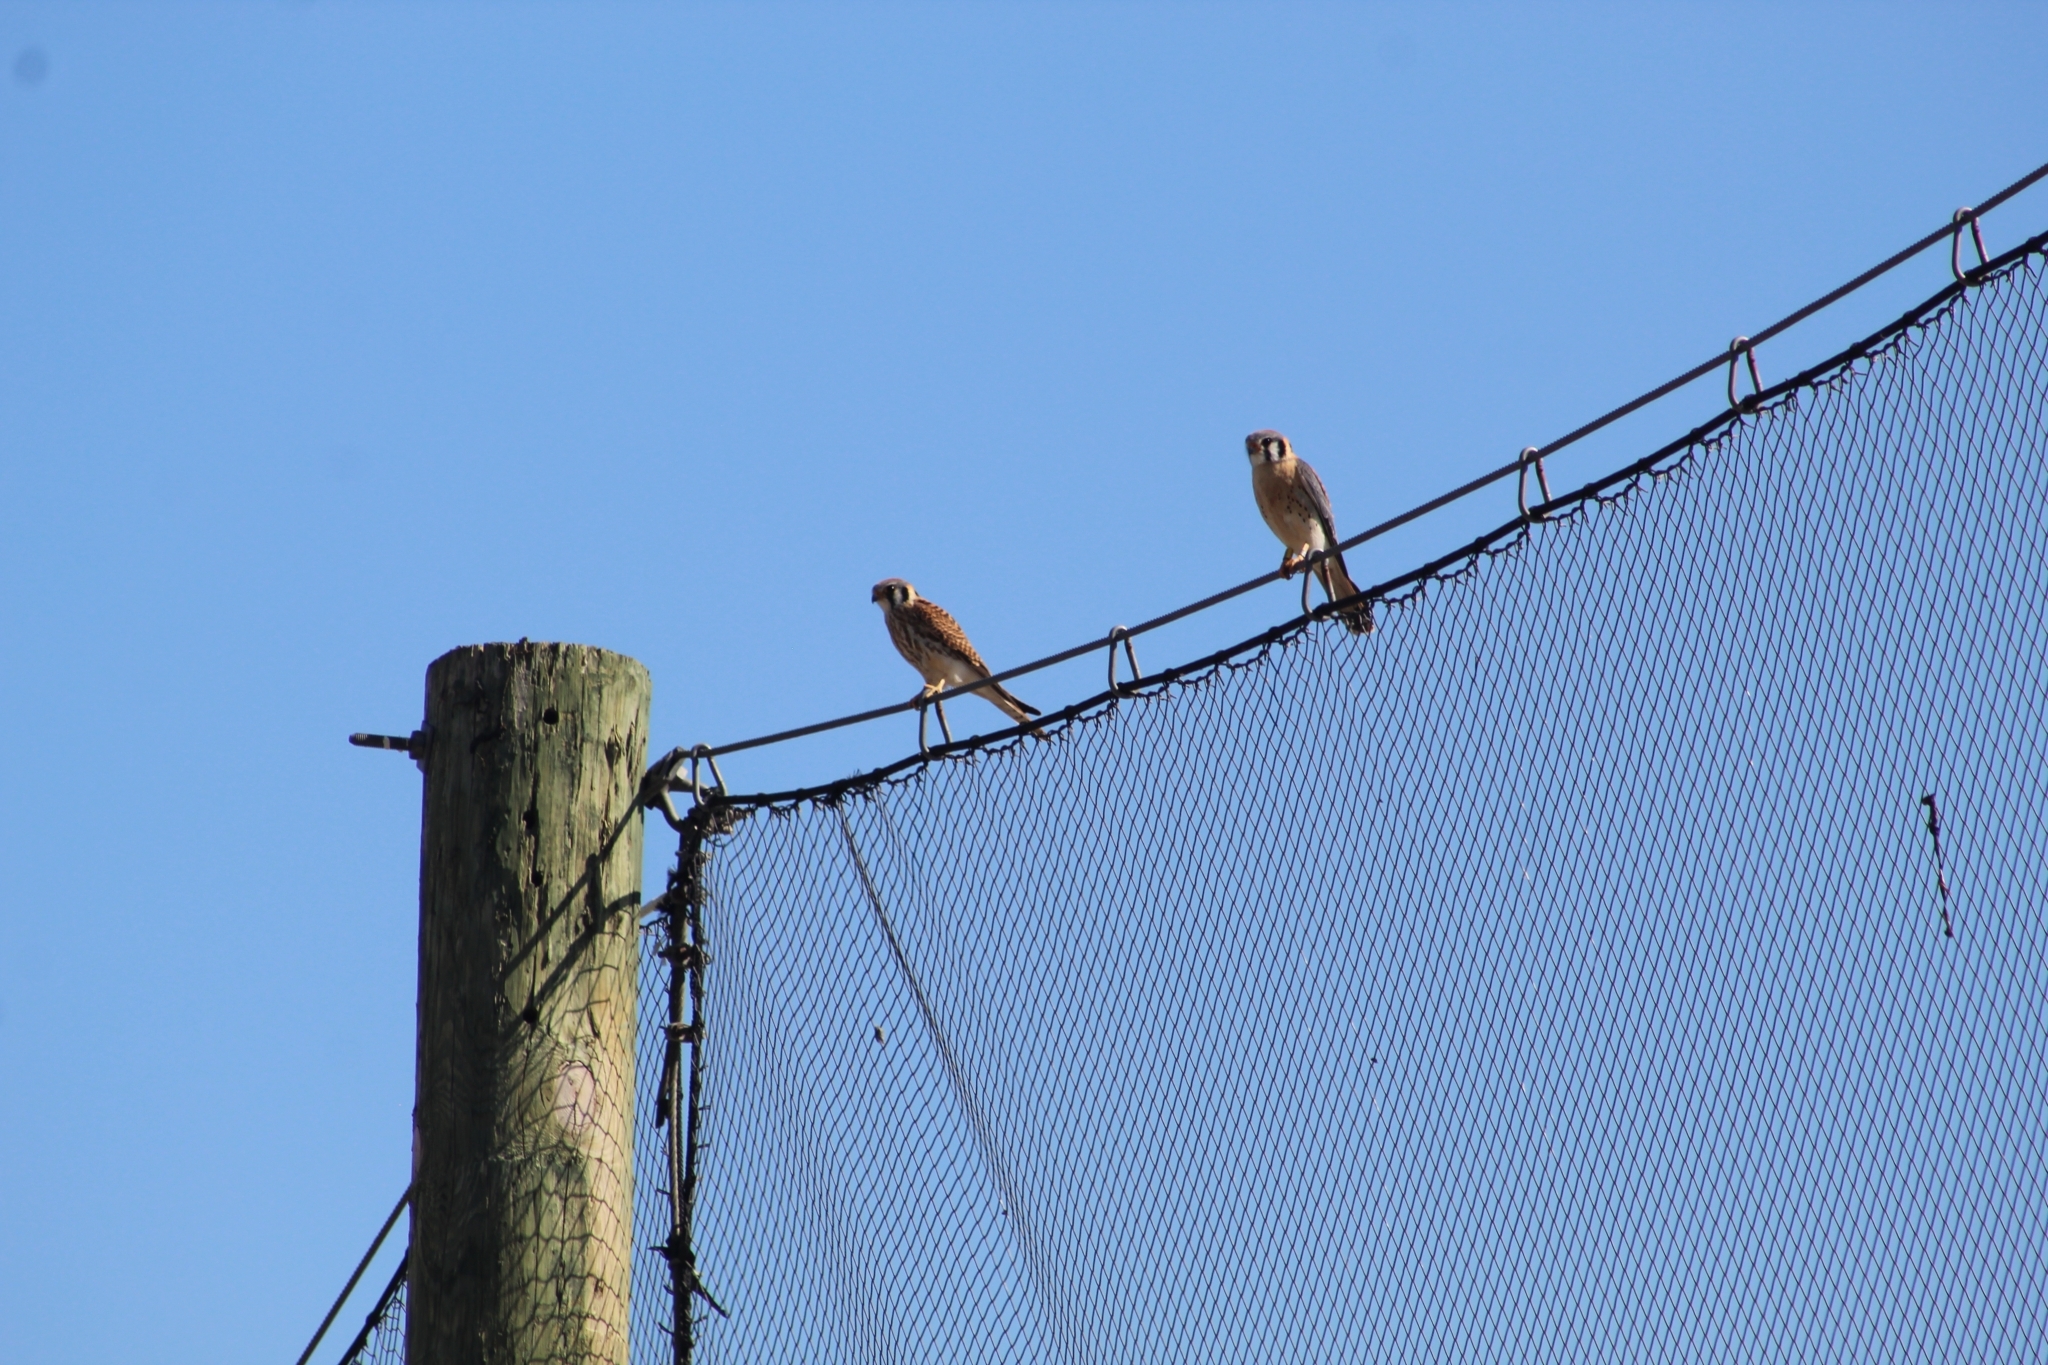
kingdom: Animalia
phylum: Chordata
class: Aves
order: Falconiformes
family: Falconidae
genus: Falco
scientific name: Falco sparverius
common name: American kestrel
